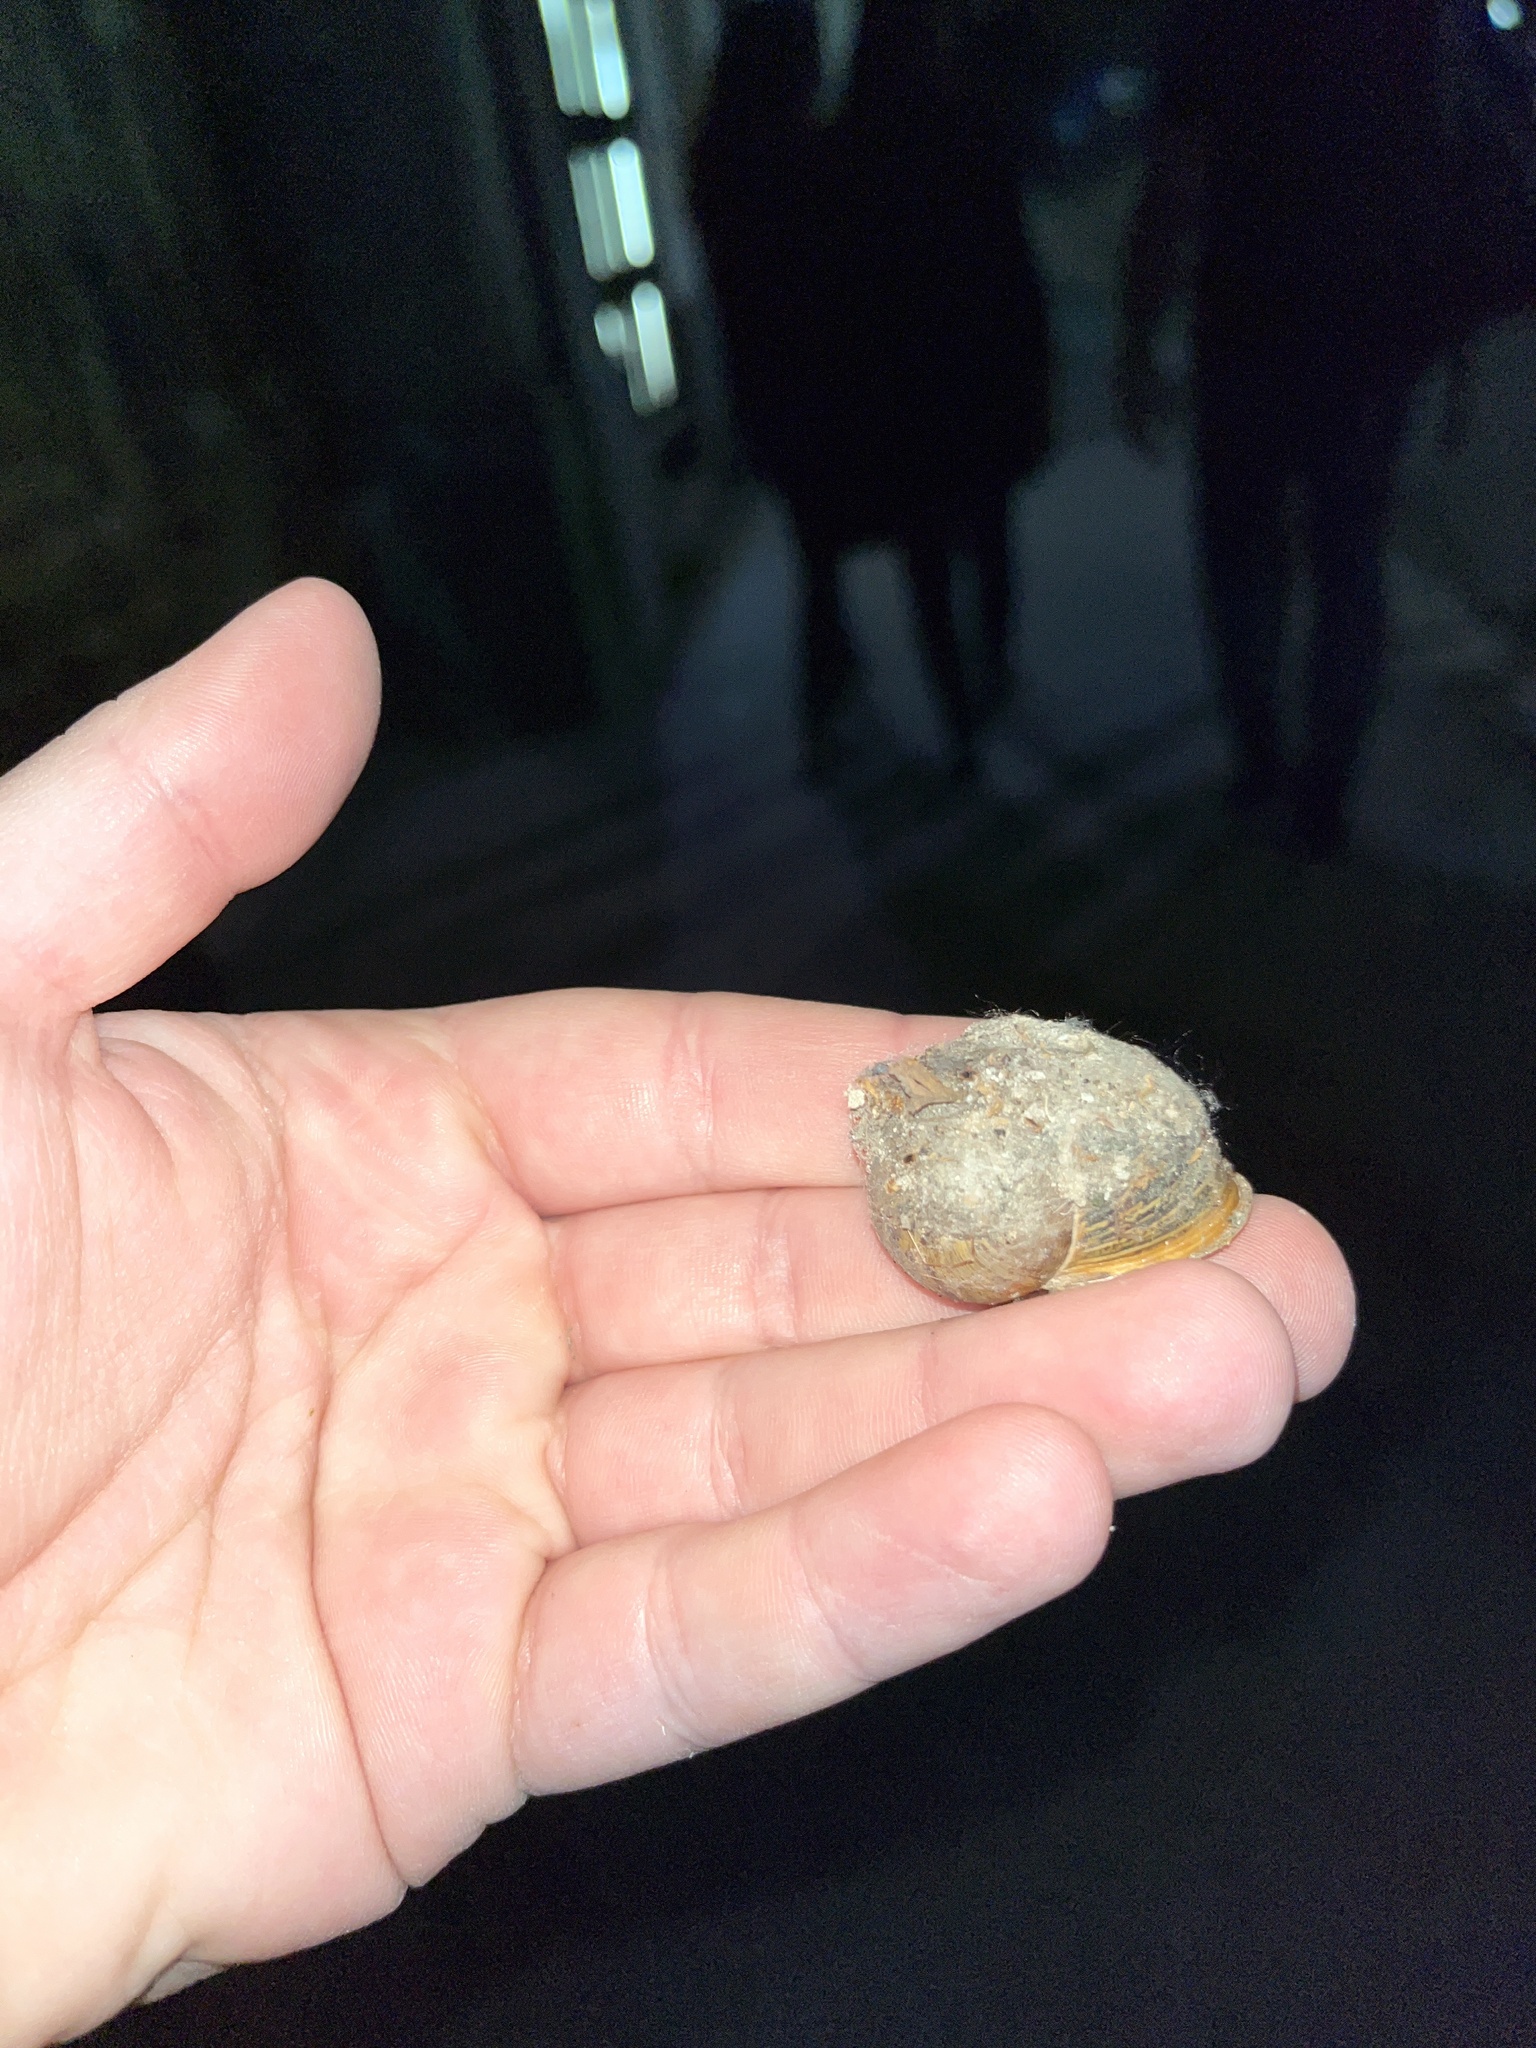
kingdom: Animalia
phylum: Mollusca
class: Gastropoda
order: Stylommatophora
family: Helicidae
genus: Cornu
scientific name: Cornu aspersum
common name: Brown garden snail
